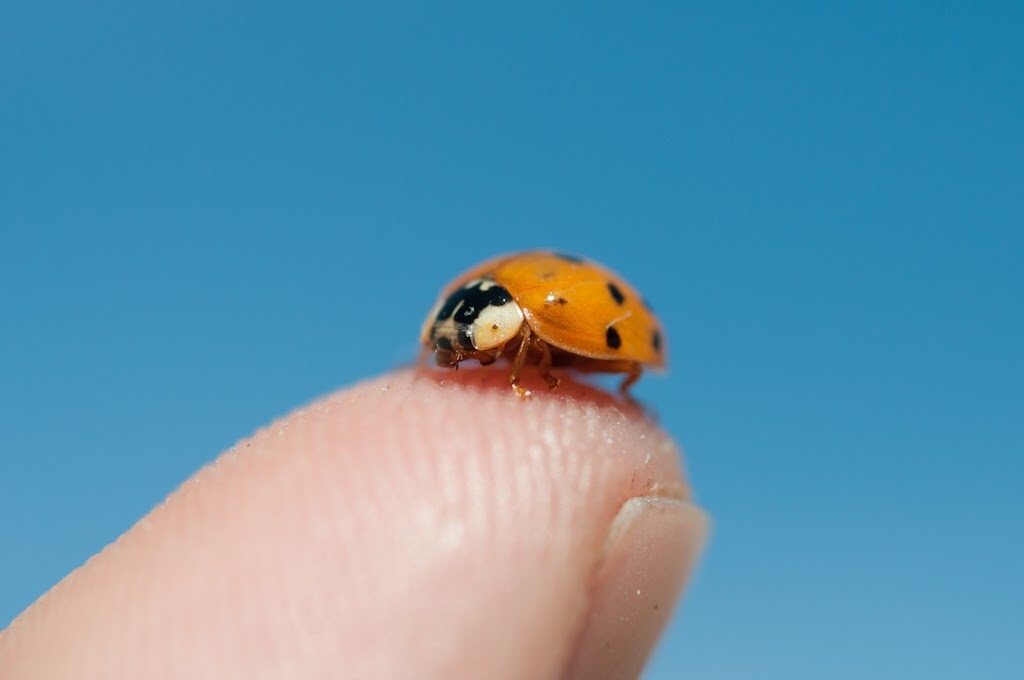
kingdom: Animalia
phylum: Arthropoda
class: Insecta
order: Coleoptera
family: Coccinellidae
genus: Harmonia
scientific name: Harmonia axyridis
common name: Harlequin ladybird
